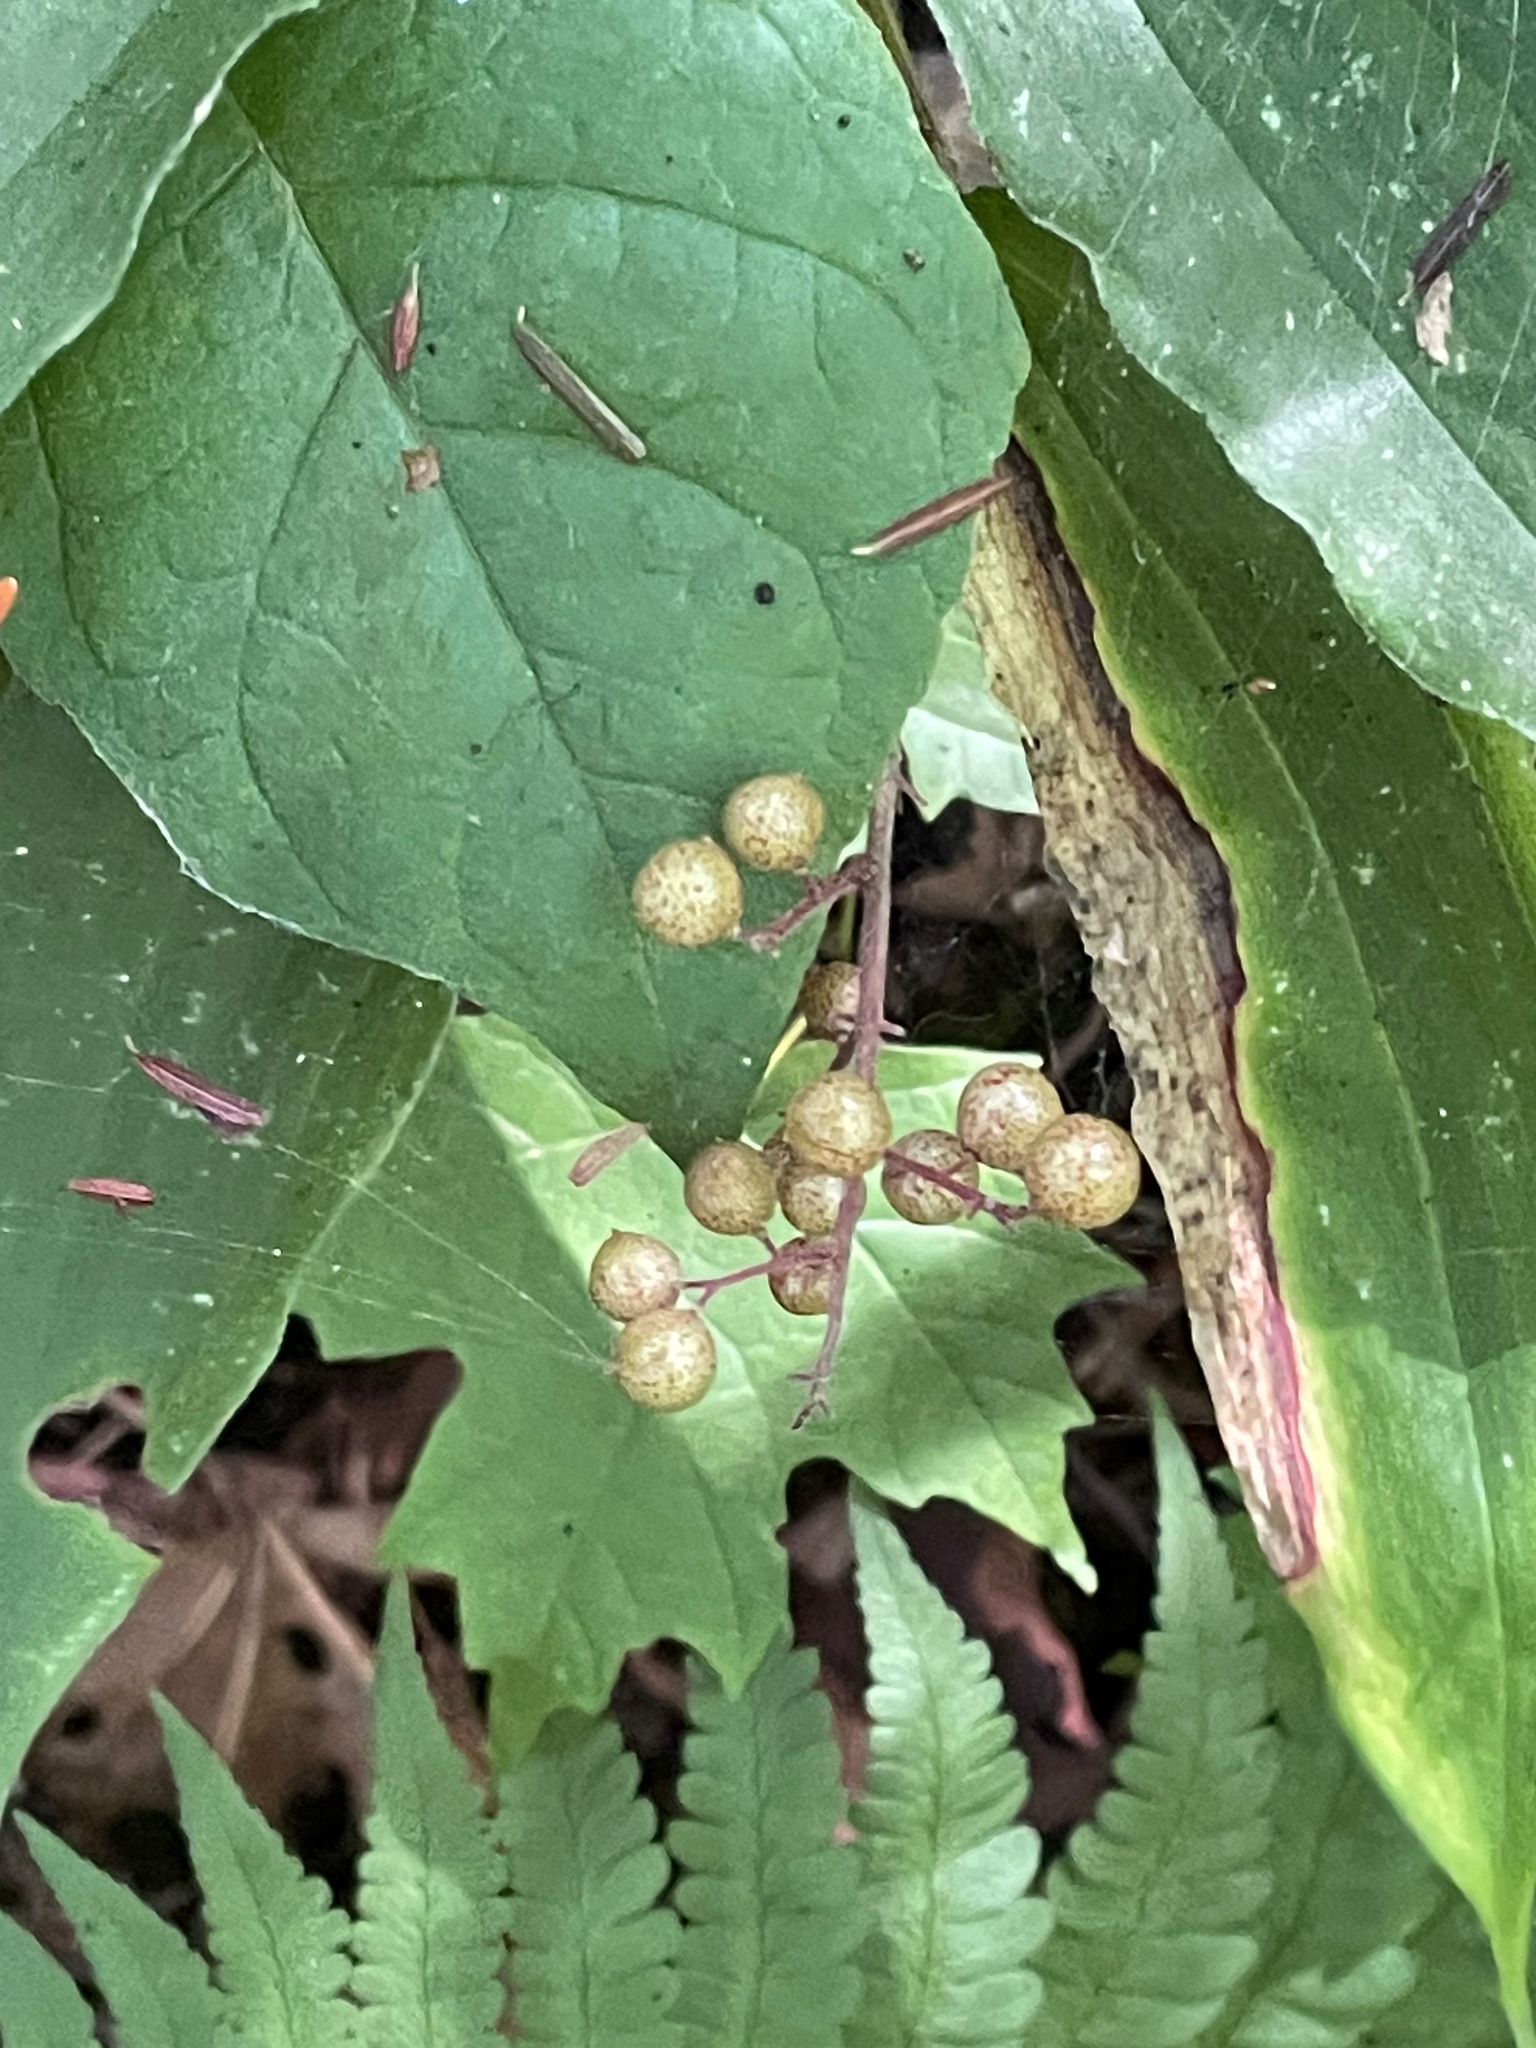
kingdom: Plantae
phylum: Tracheophyta
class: Liliopsida
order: Asparagales
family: Asparagaceae
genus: Maianthemum
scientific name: Maianthemum racemosum
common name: False spikenard
